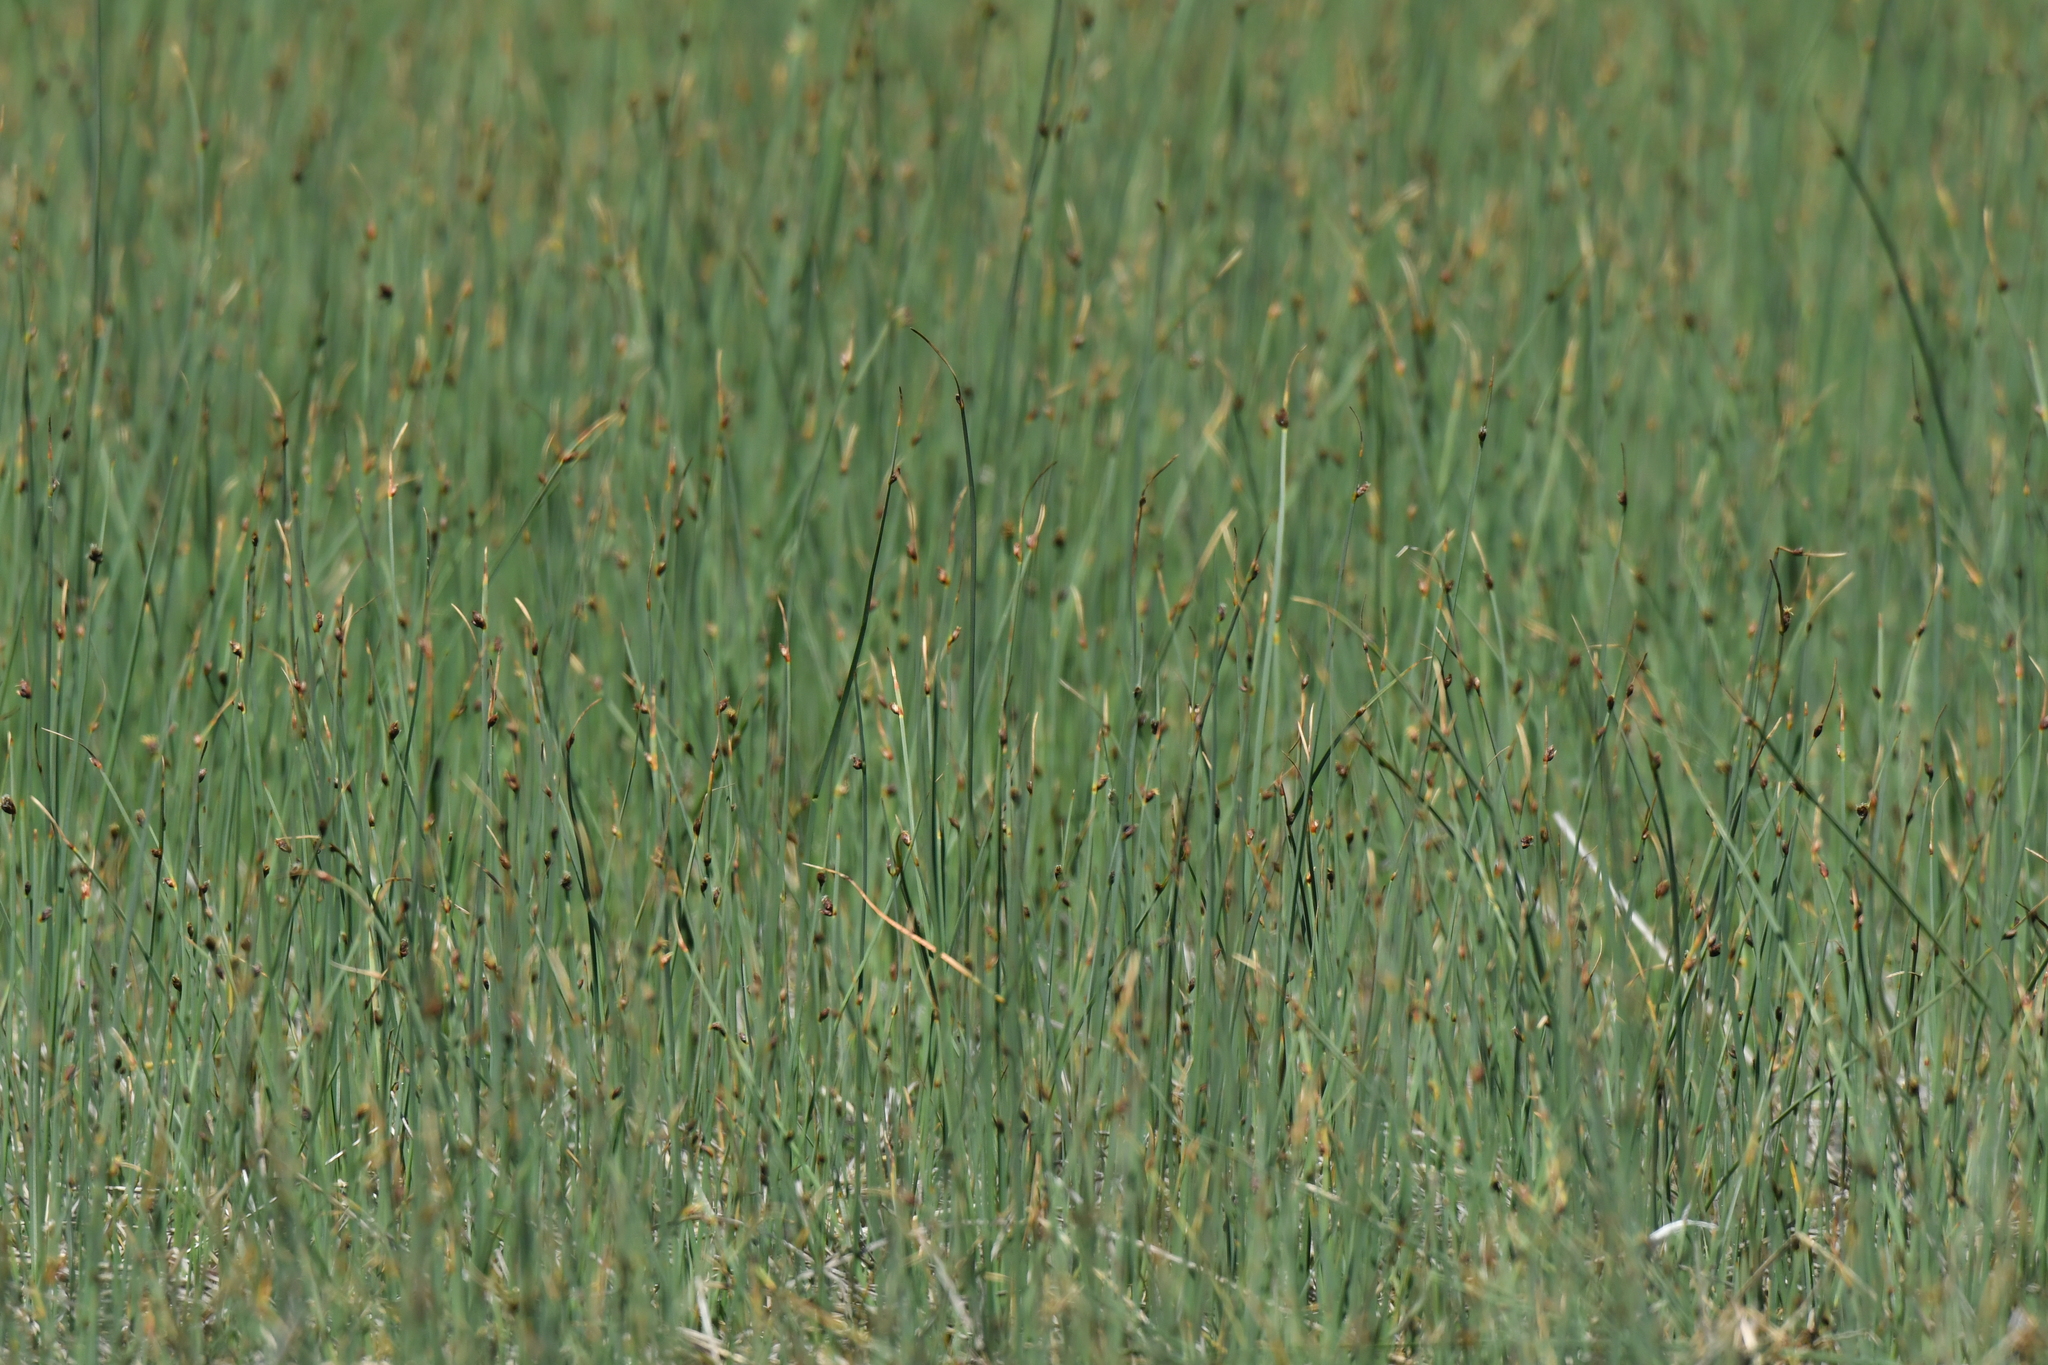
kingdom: Plantae
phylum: Tracheophyta
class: Liliopsida
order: Poales
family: Cyperaceae
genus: Schoenoplectus
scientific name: Schoenoplectus pungens
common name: Sharp club-rush
